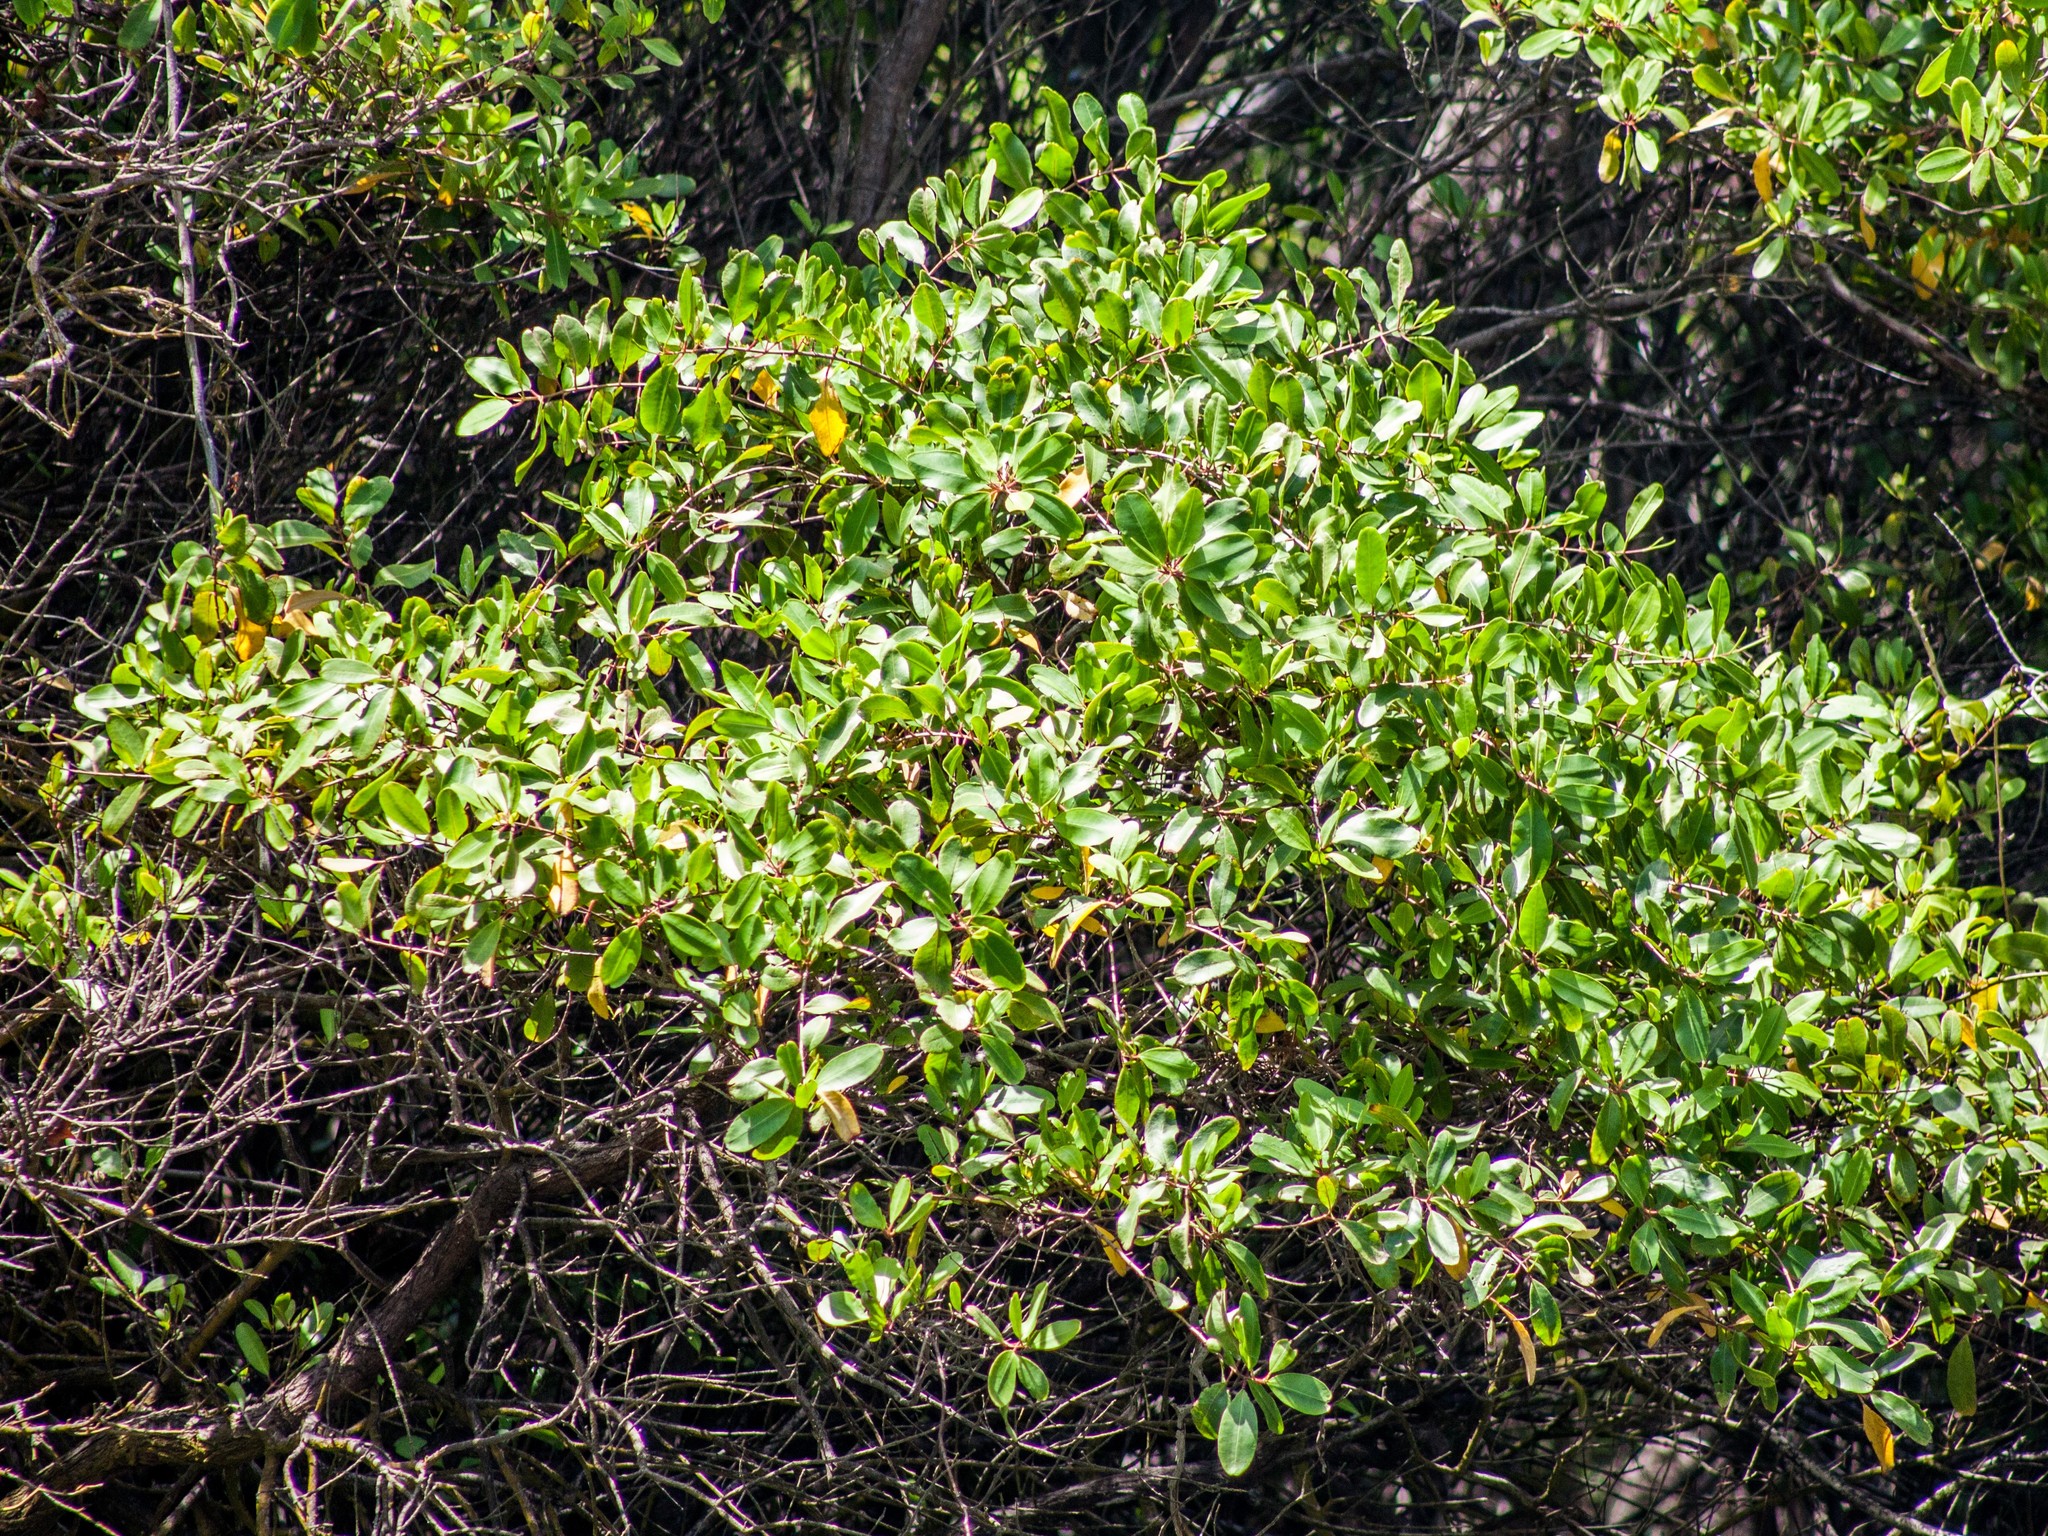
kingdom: Plantae
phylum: Tracheophyta
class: Magnoliopsida
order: Myrtales
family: Combretaceae
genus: Laguncularia
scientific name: Laguncularia racemosa
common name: White mangrove
